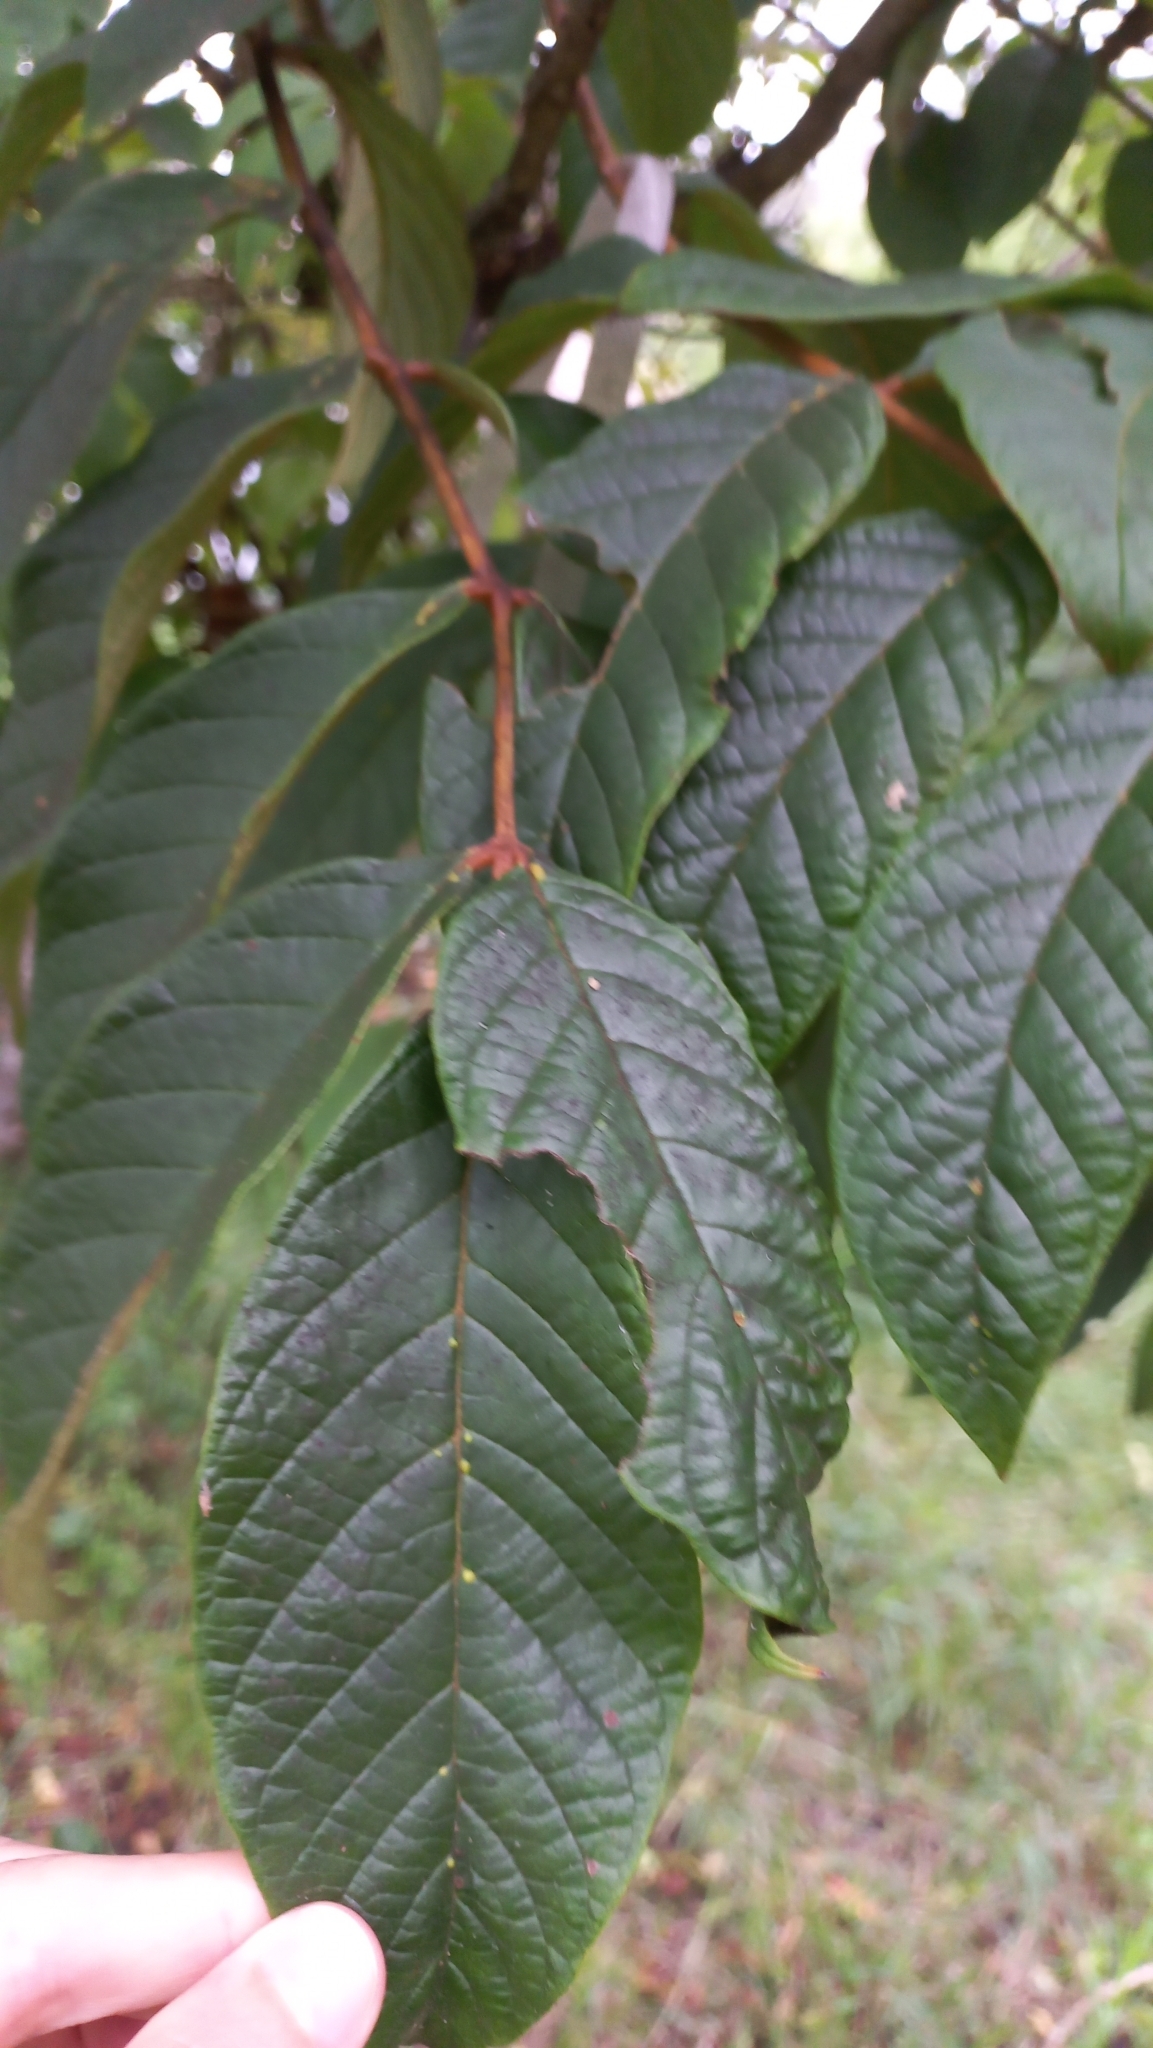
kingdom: Plantae
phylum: Tracheophyta
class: Magnoliopsida
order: Lamiales
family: Bignoniaceae
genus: Spathodea
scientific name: Spathodea campanulata
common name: African tuliptree
